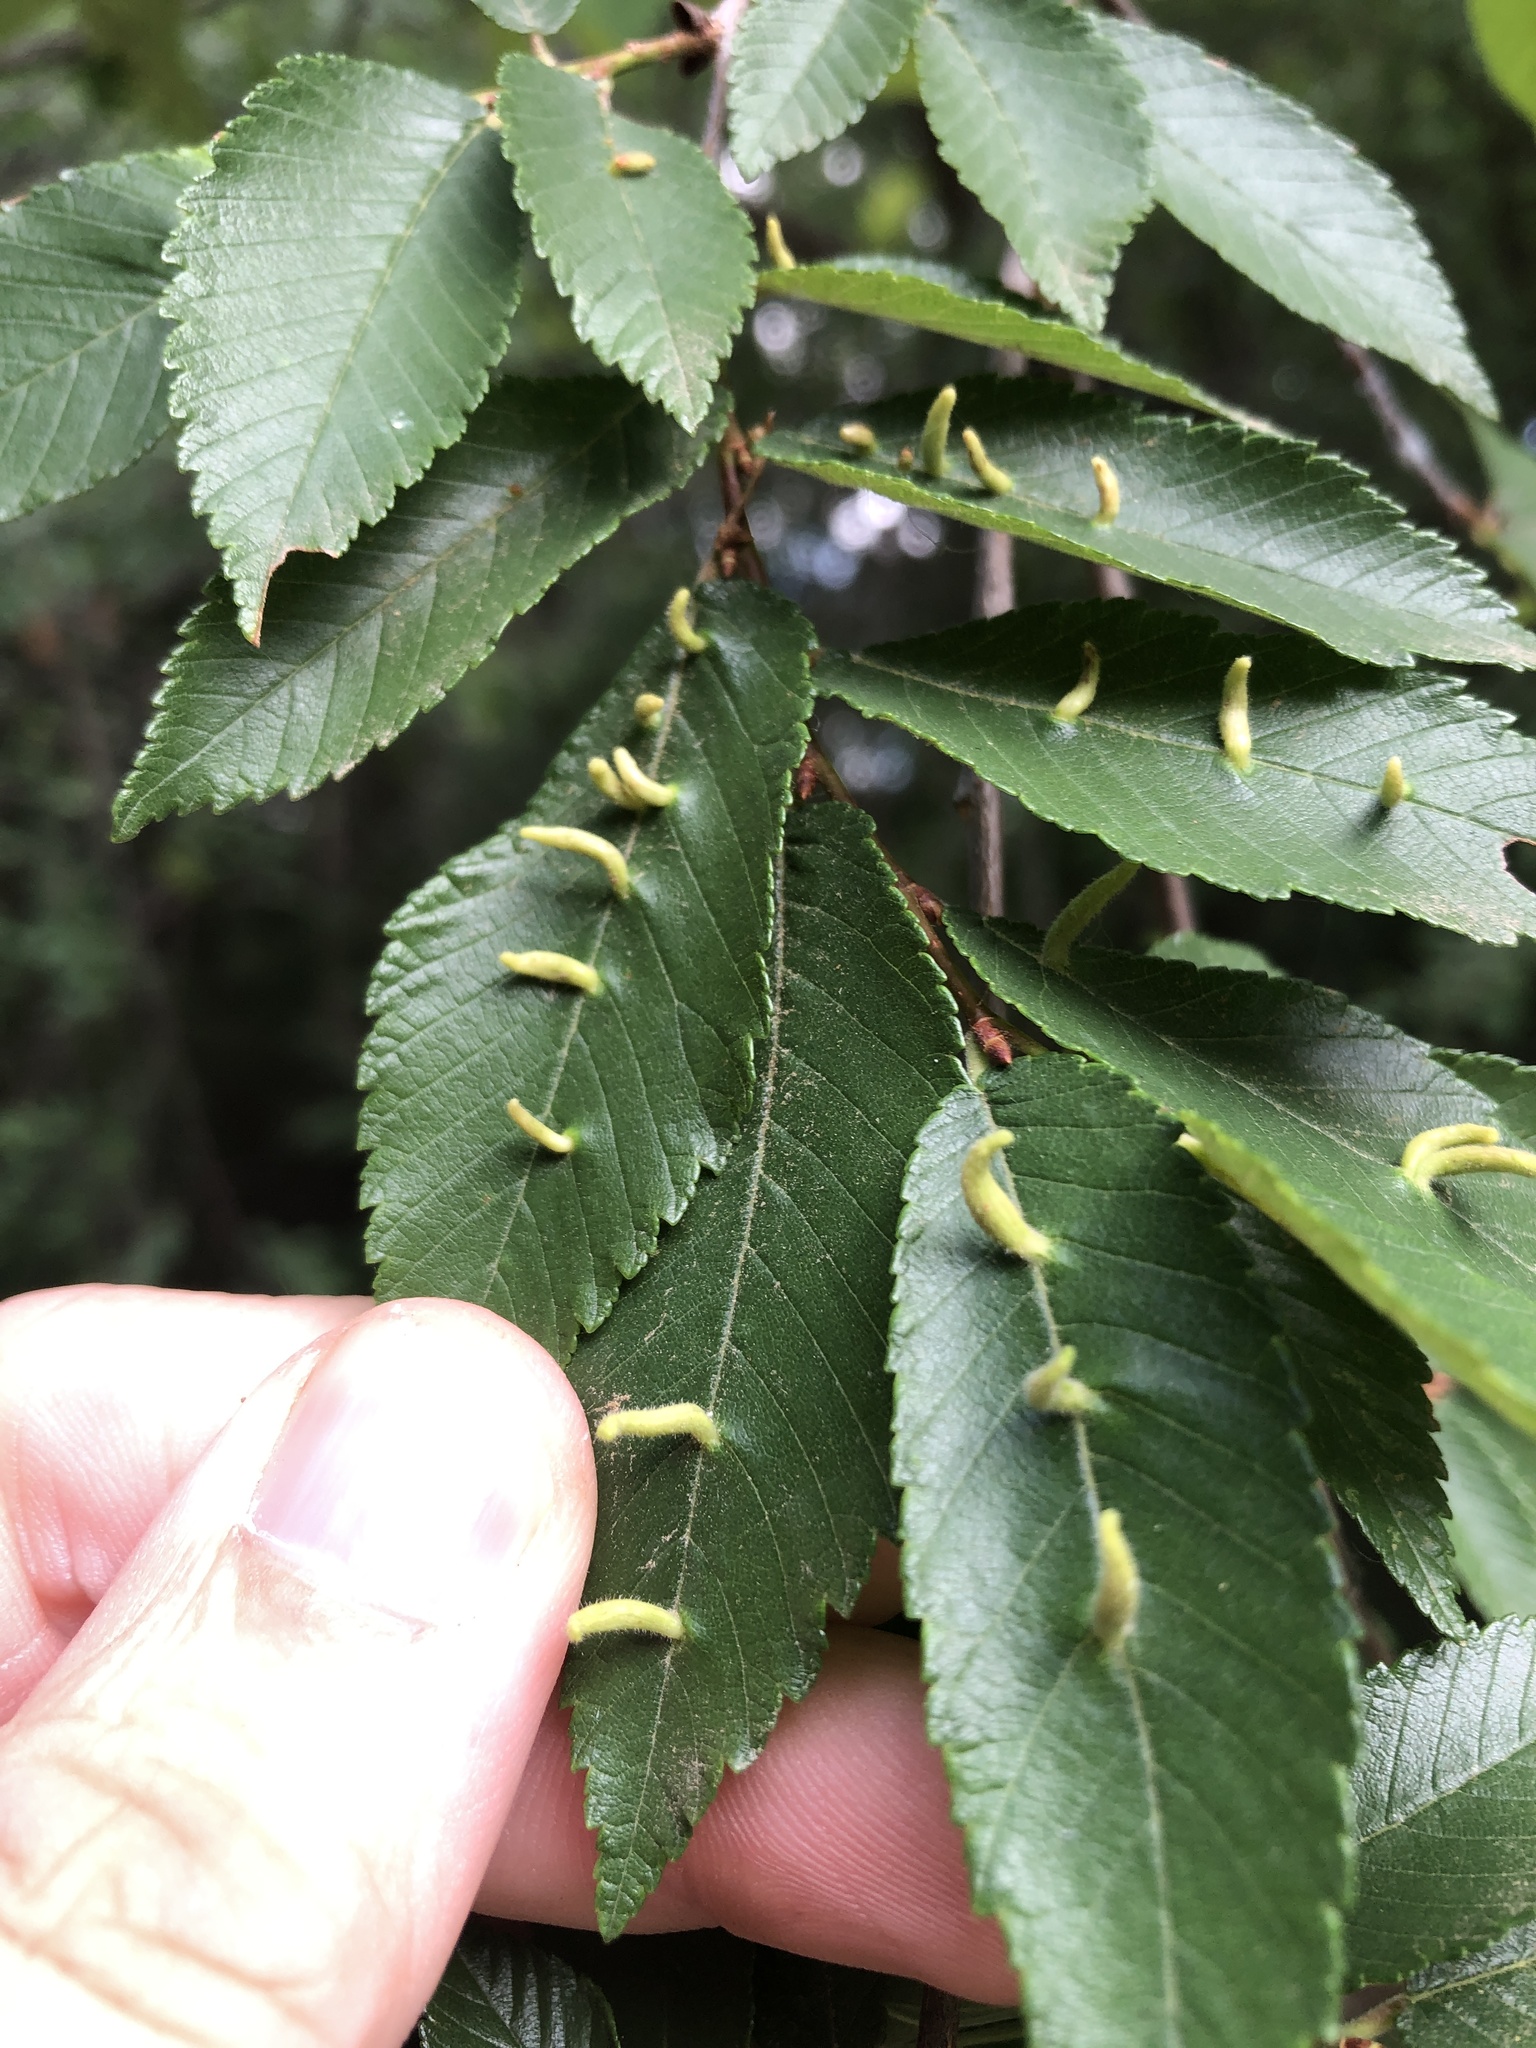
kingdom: Animalia
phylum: Arthropoda
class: Arachnida
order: Trombidiformes
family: Eriophyidae
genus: Aceria
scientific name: Aceria
